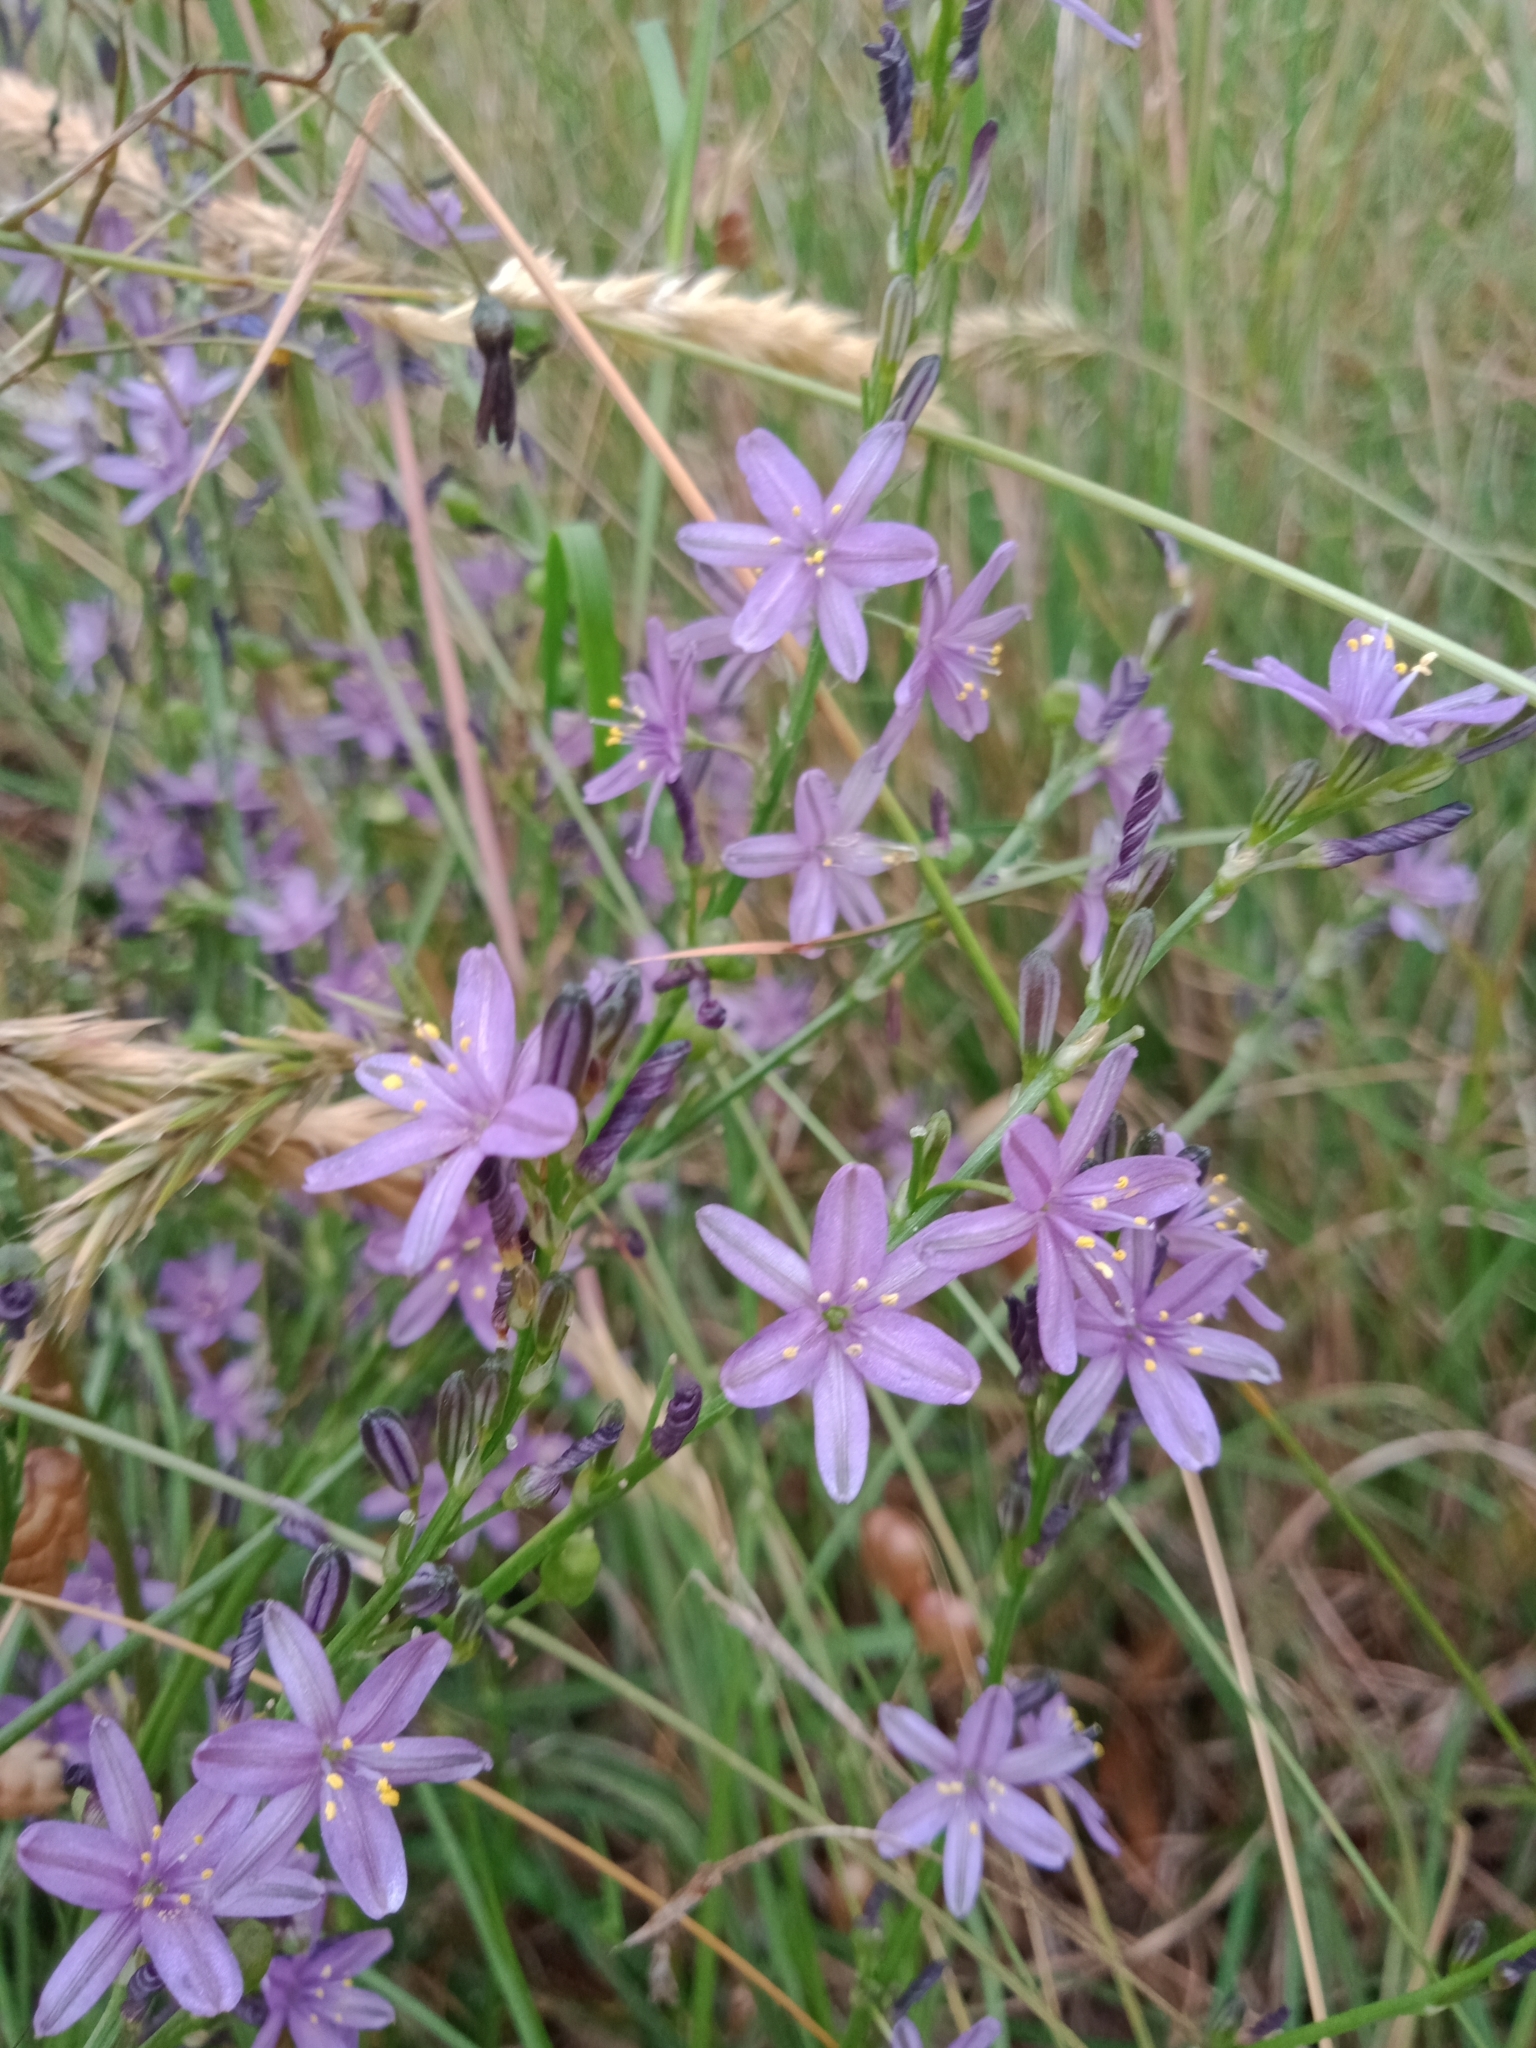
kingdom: Plantae
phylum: Tracheophyta
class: Liliopsida
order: Asparagales
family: Asphodelaceae
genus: Caesia
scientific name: Caesia calliantha
